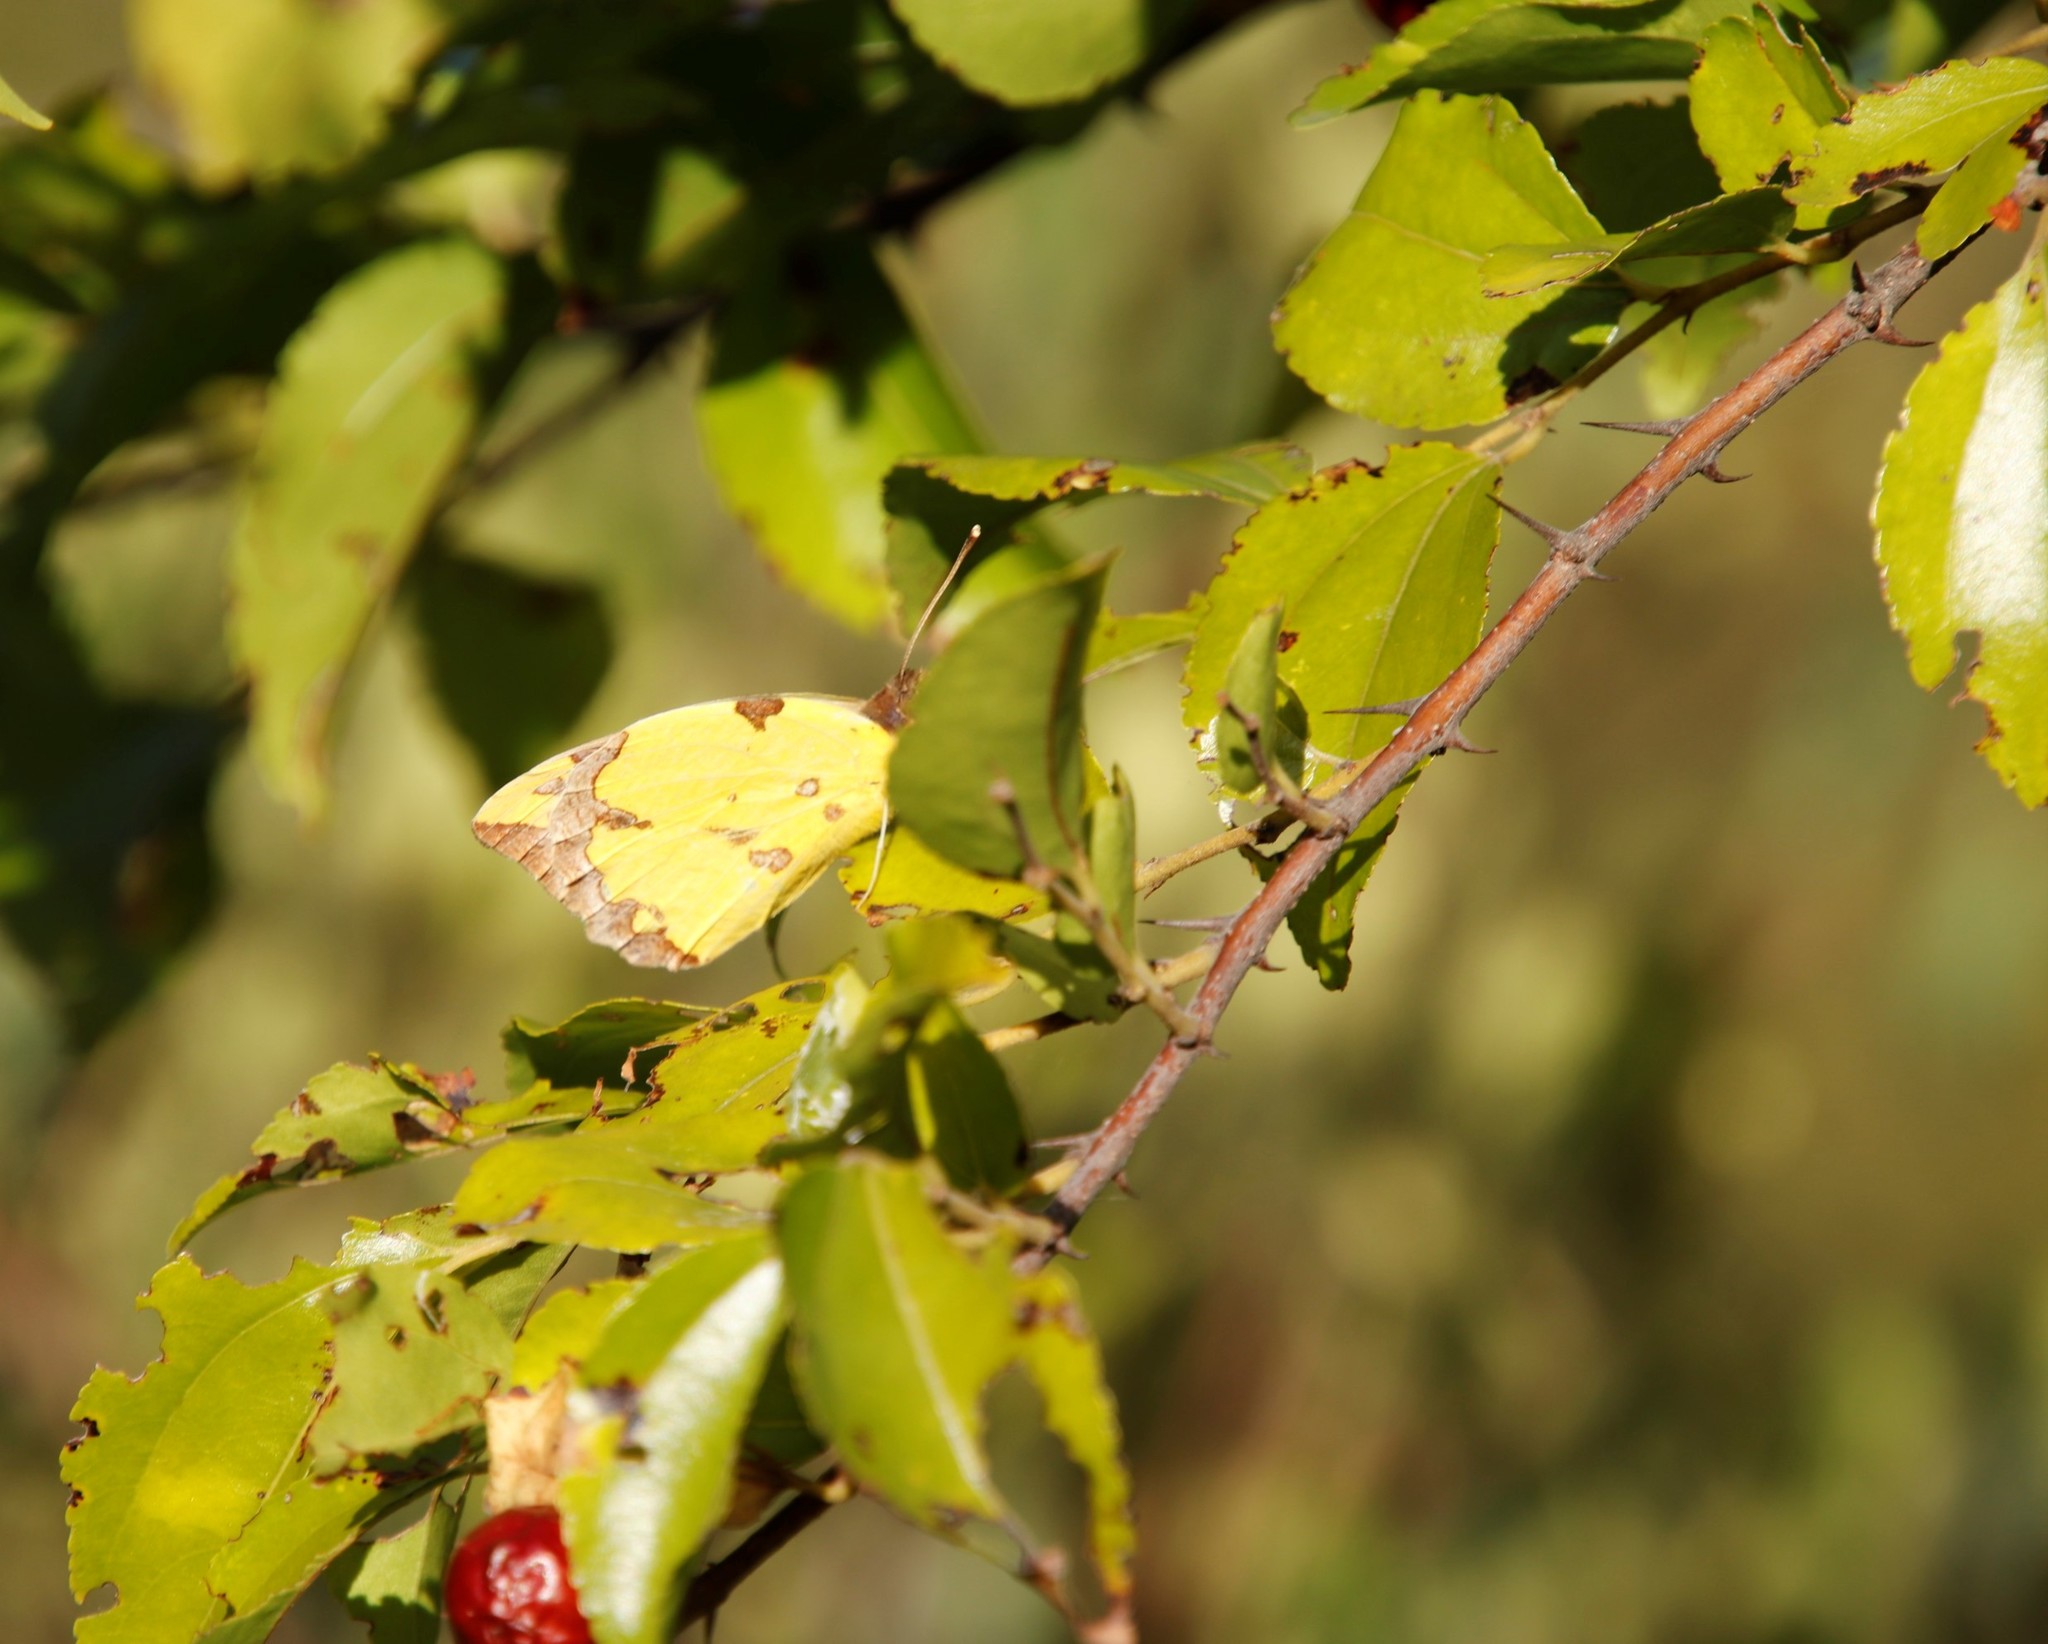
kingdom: Plantae
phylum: Tracheophyta
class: Magnoliopsida
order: Rosales
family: Rhamnaceae
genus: Ziziphus
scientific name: Ziziphus mucronata
